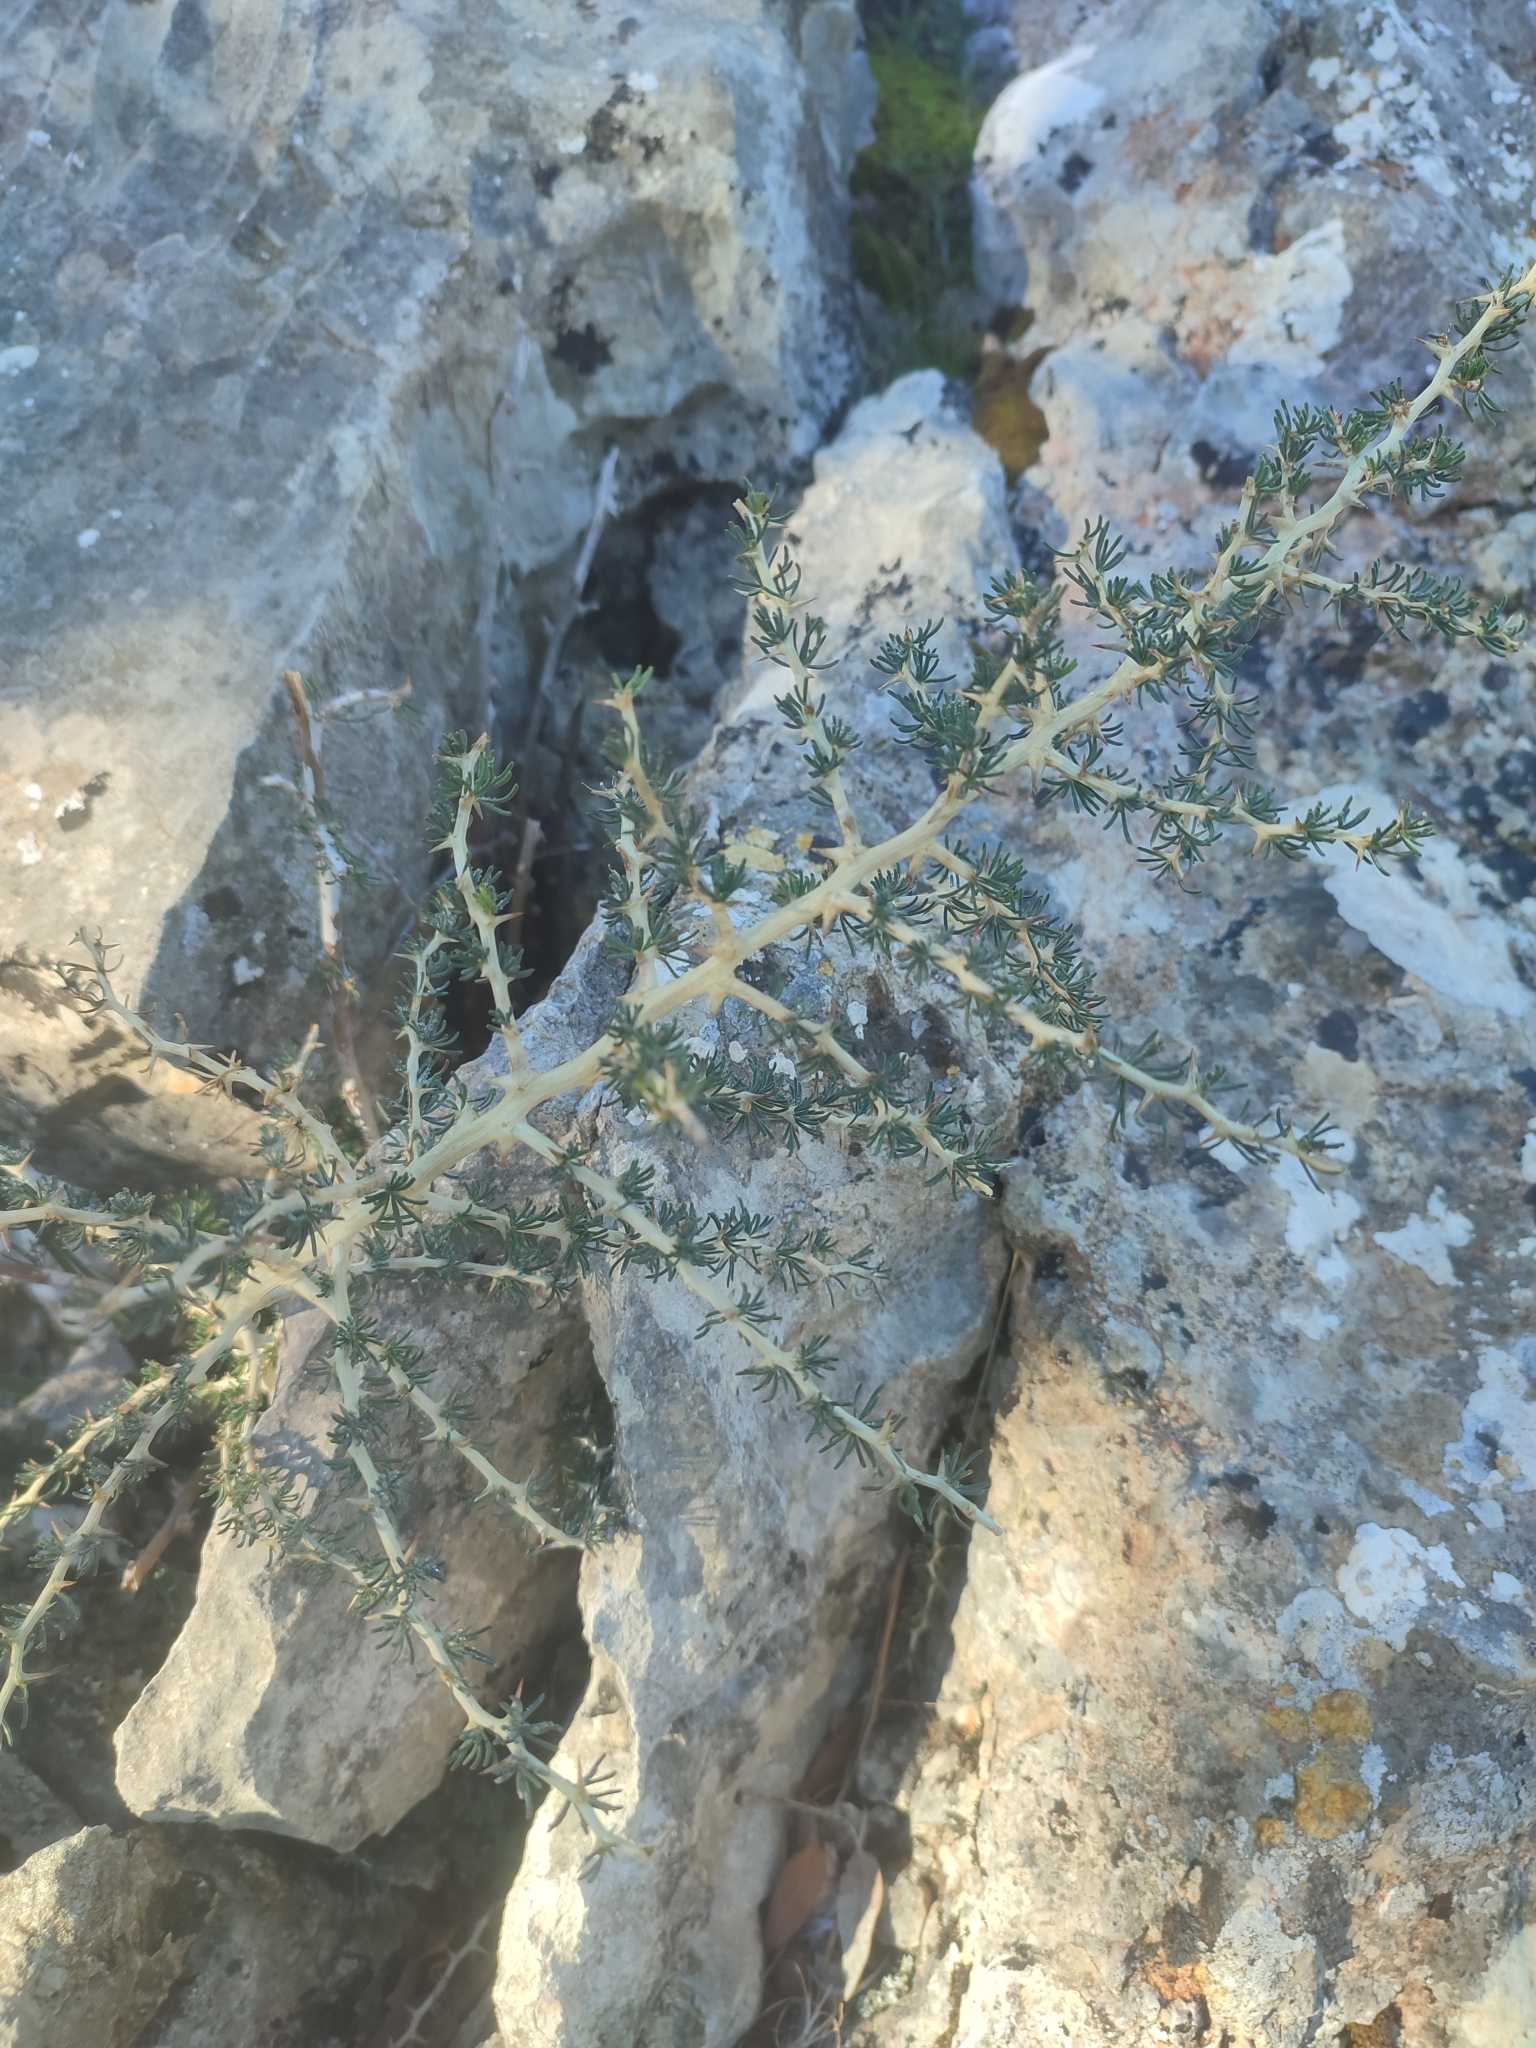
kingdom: Plantae
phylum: Tracheophyta
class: Liliopsida
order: Asparagales
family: Asparagaceae
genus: Asparagus
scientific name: Asparagus albus
